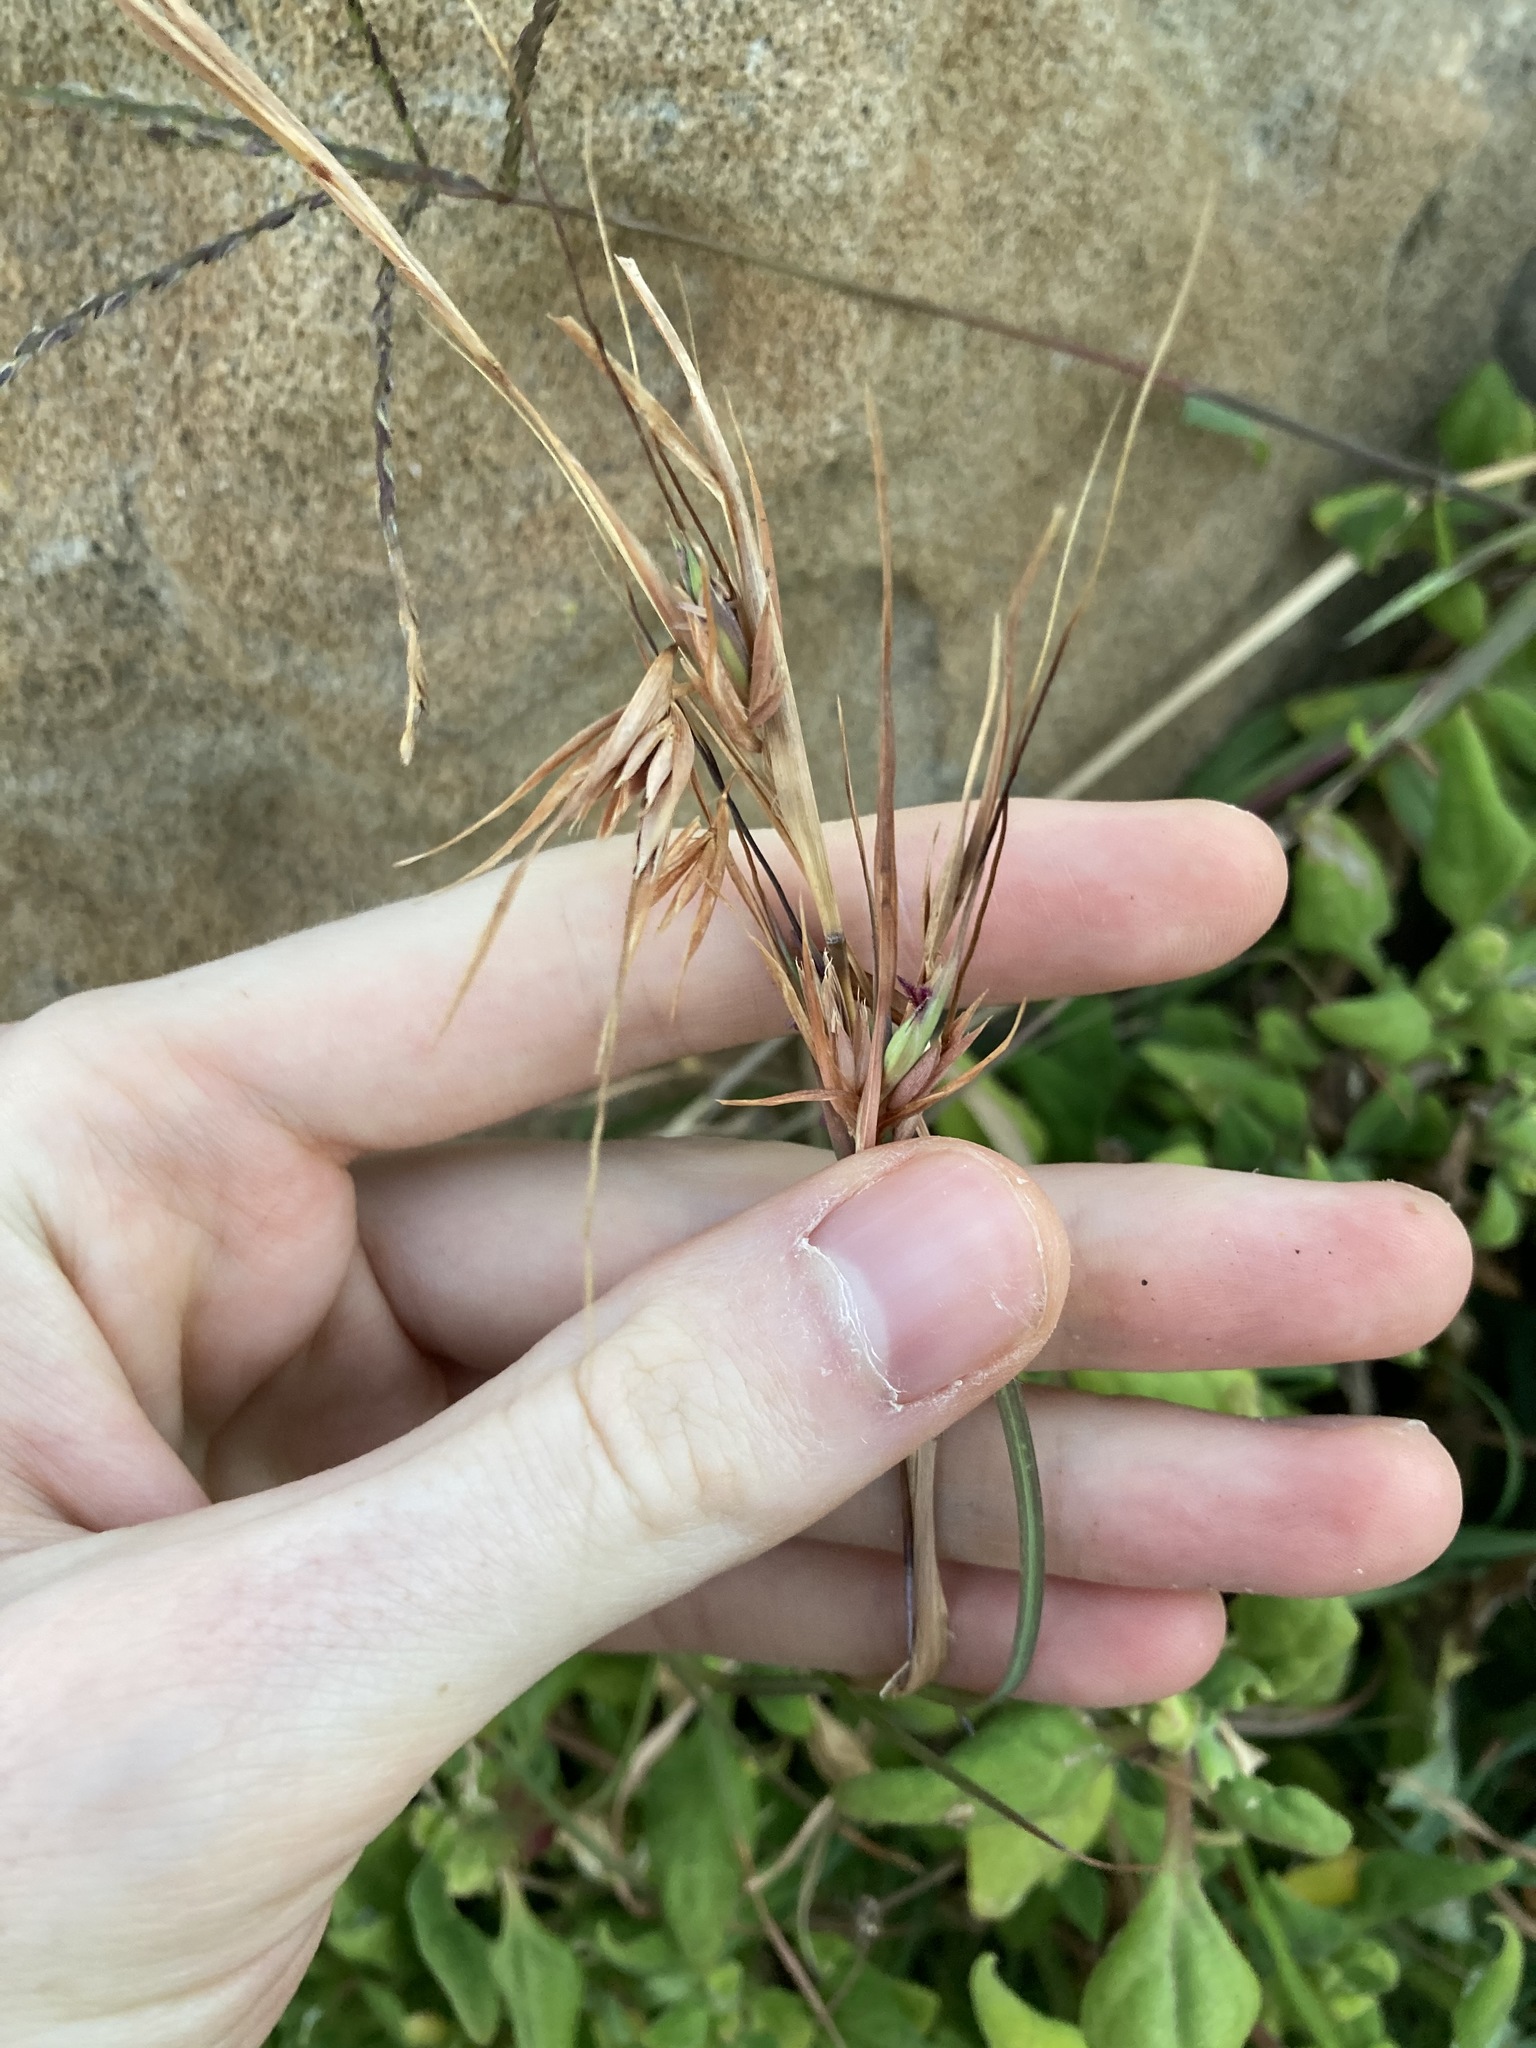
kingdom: Plantae
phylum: Tracheophyta
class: Liliopsida
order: Poales
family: Poaceae
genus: Themeda
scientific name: Themeda triandra
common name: Kangaroo grass
